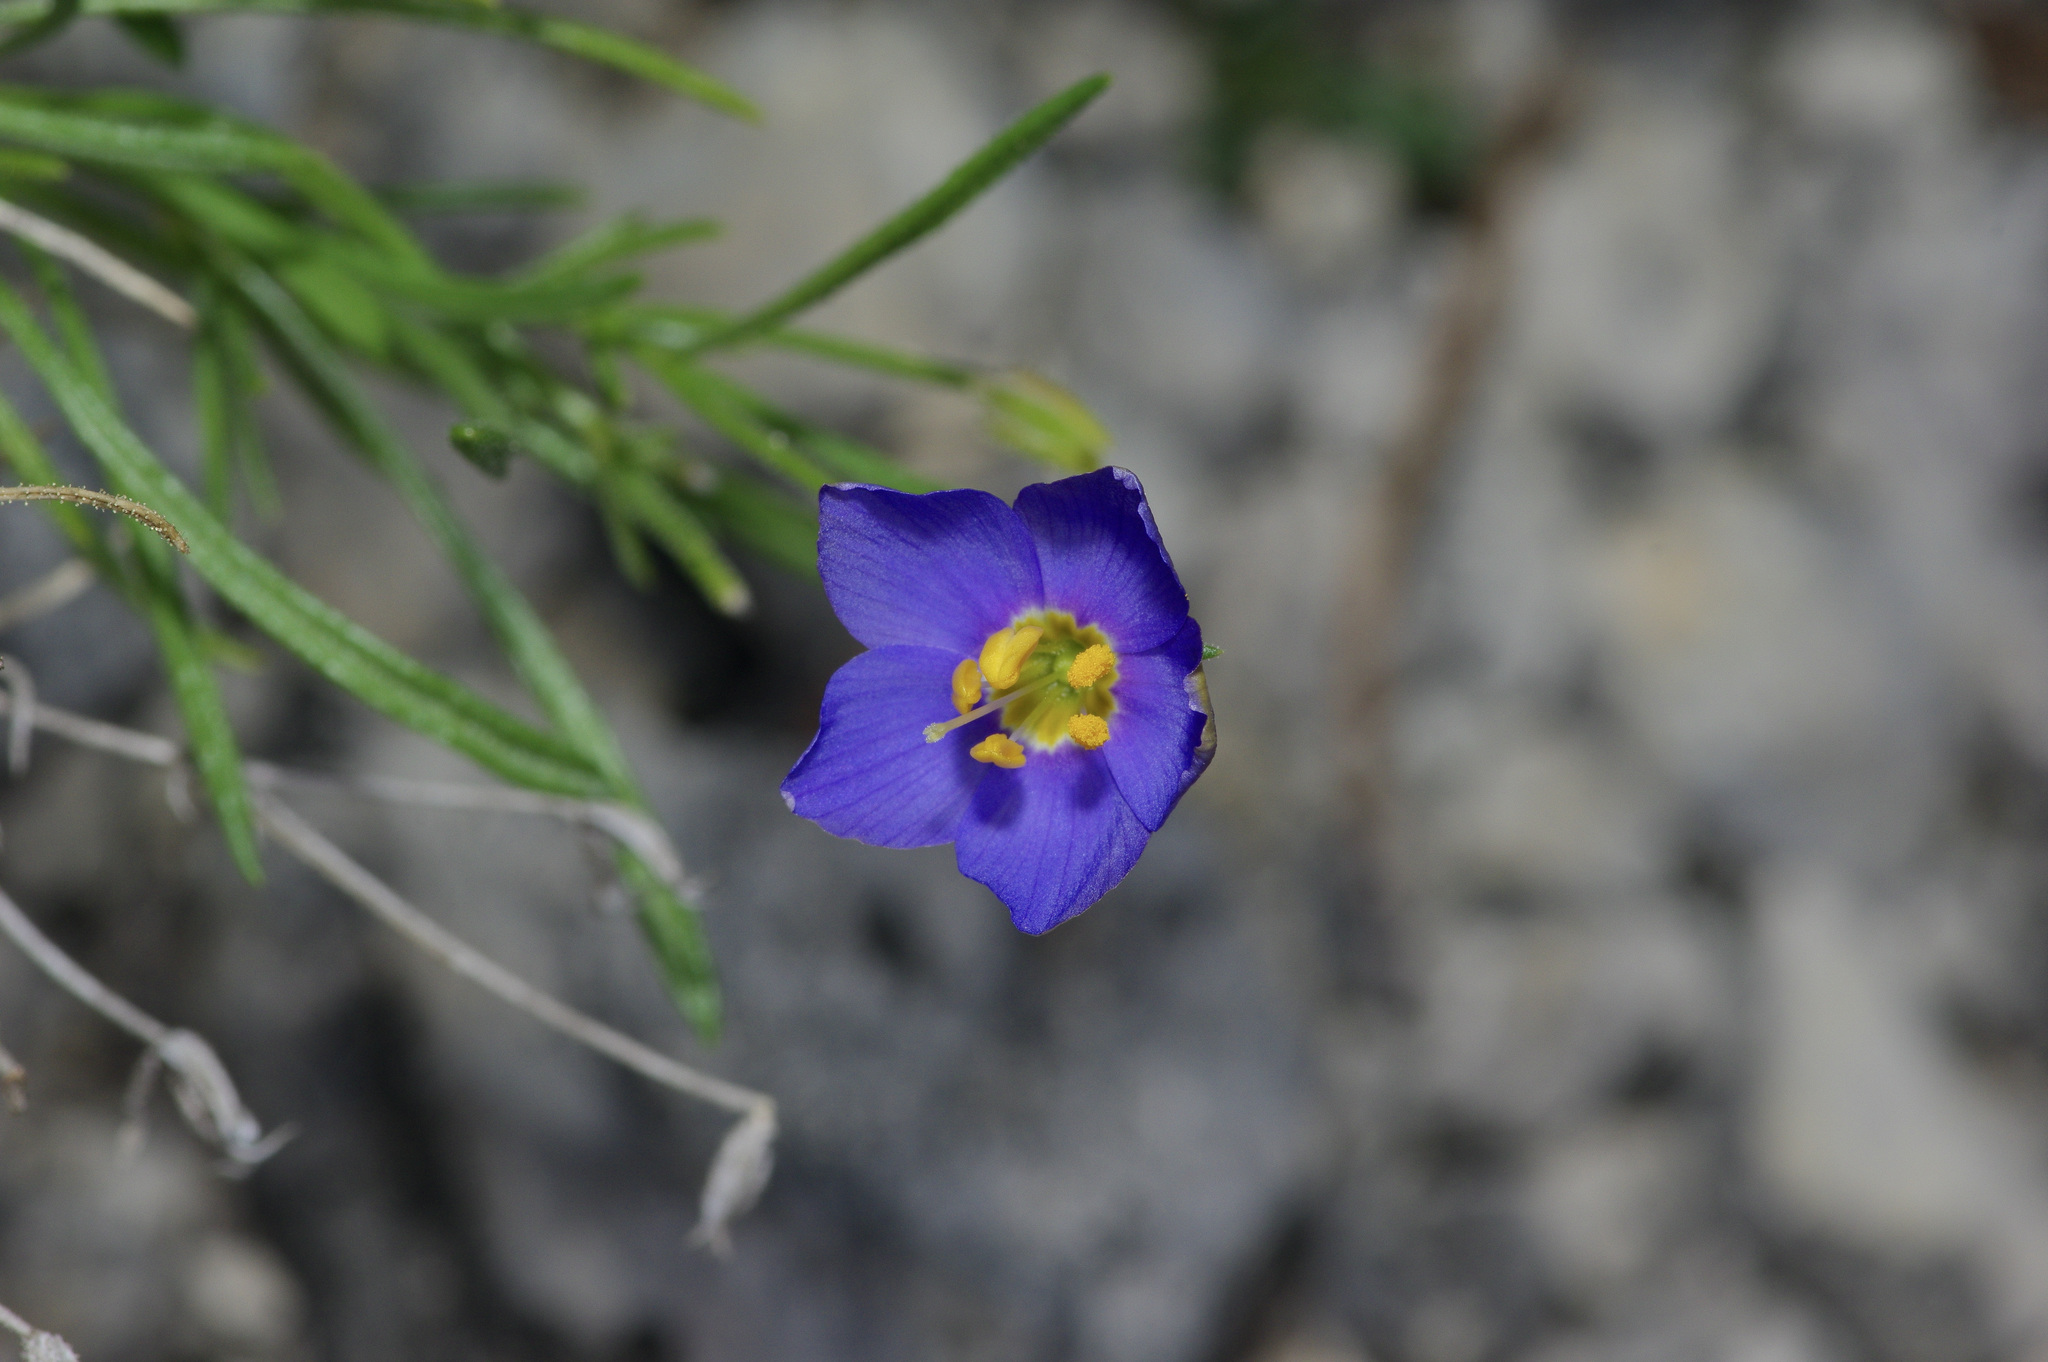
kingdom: Plantae
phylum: Tracheophyta
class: Magnoliopsida
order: Ericales
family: Polemoniaceae
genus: Giliastrum
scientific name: Giliastrum rigidulum
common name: Bluebowls
